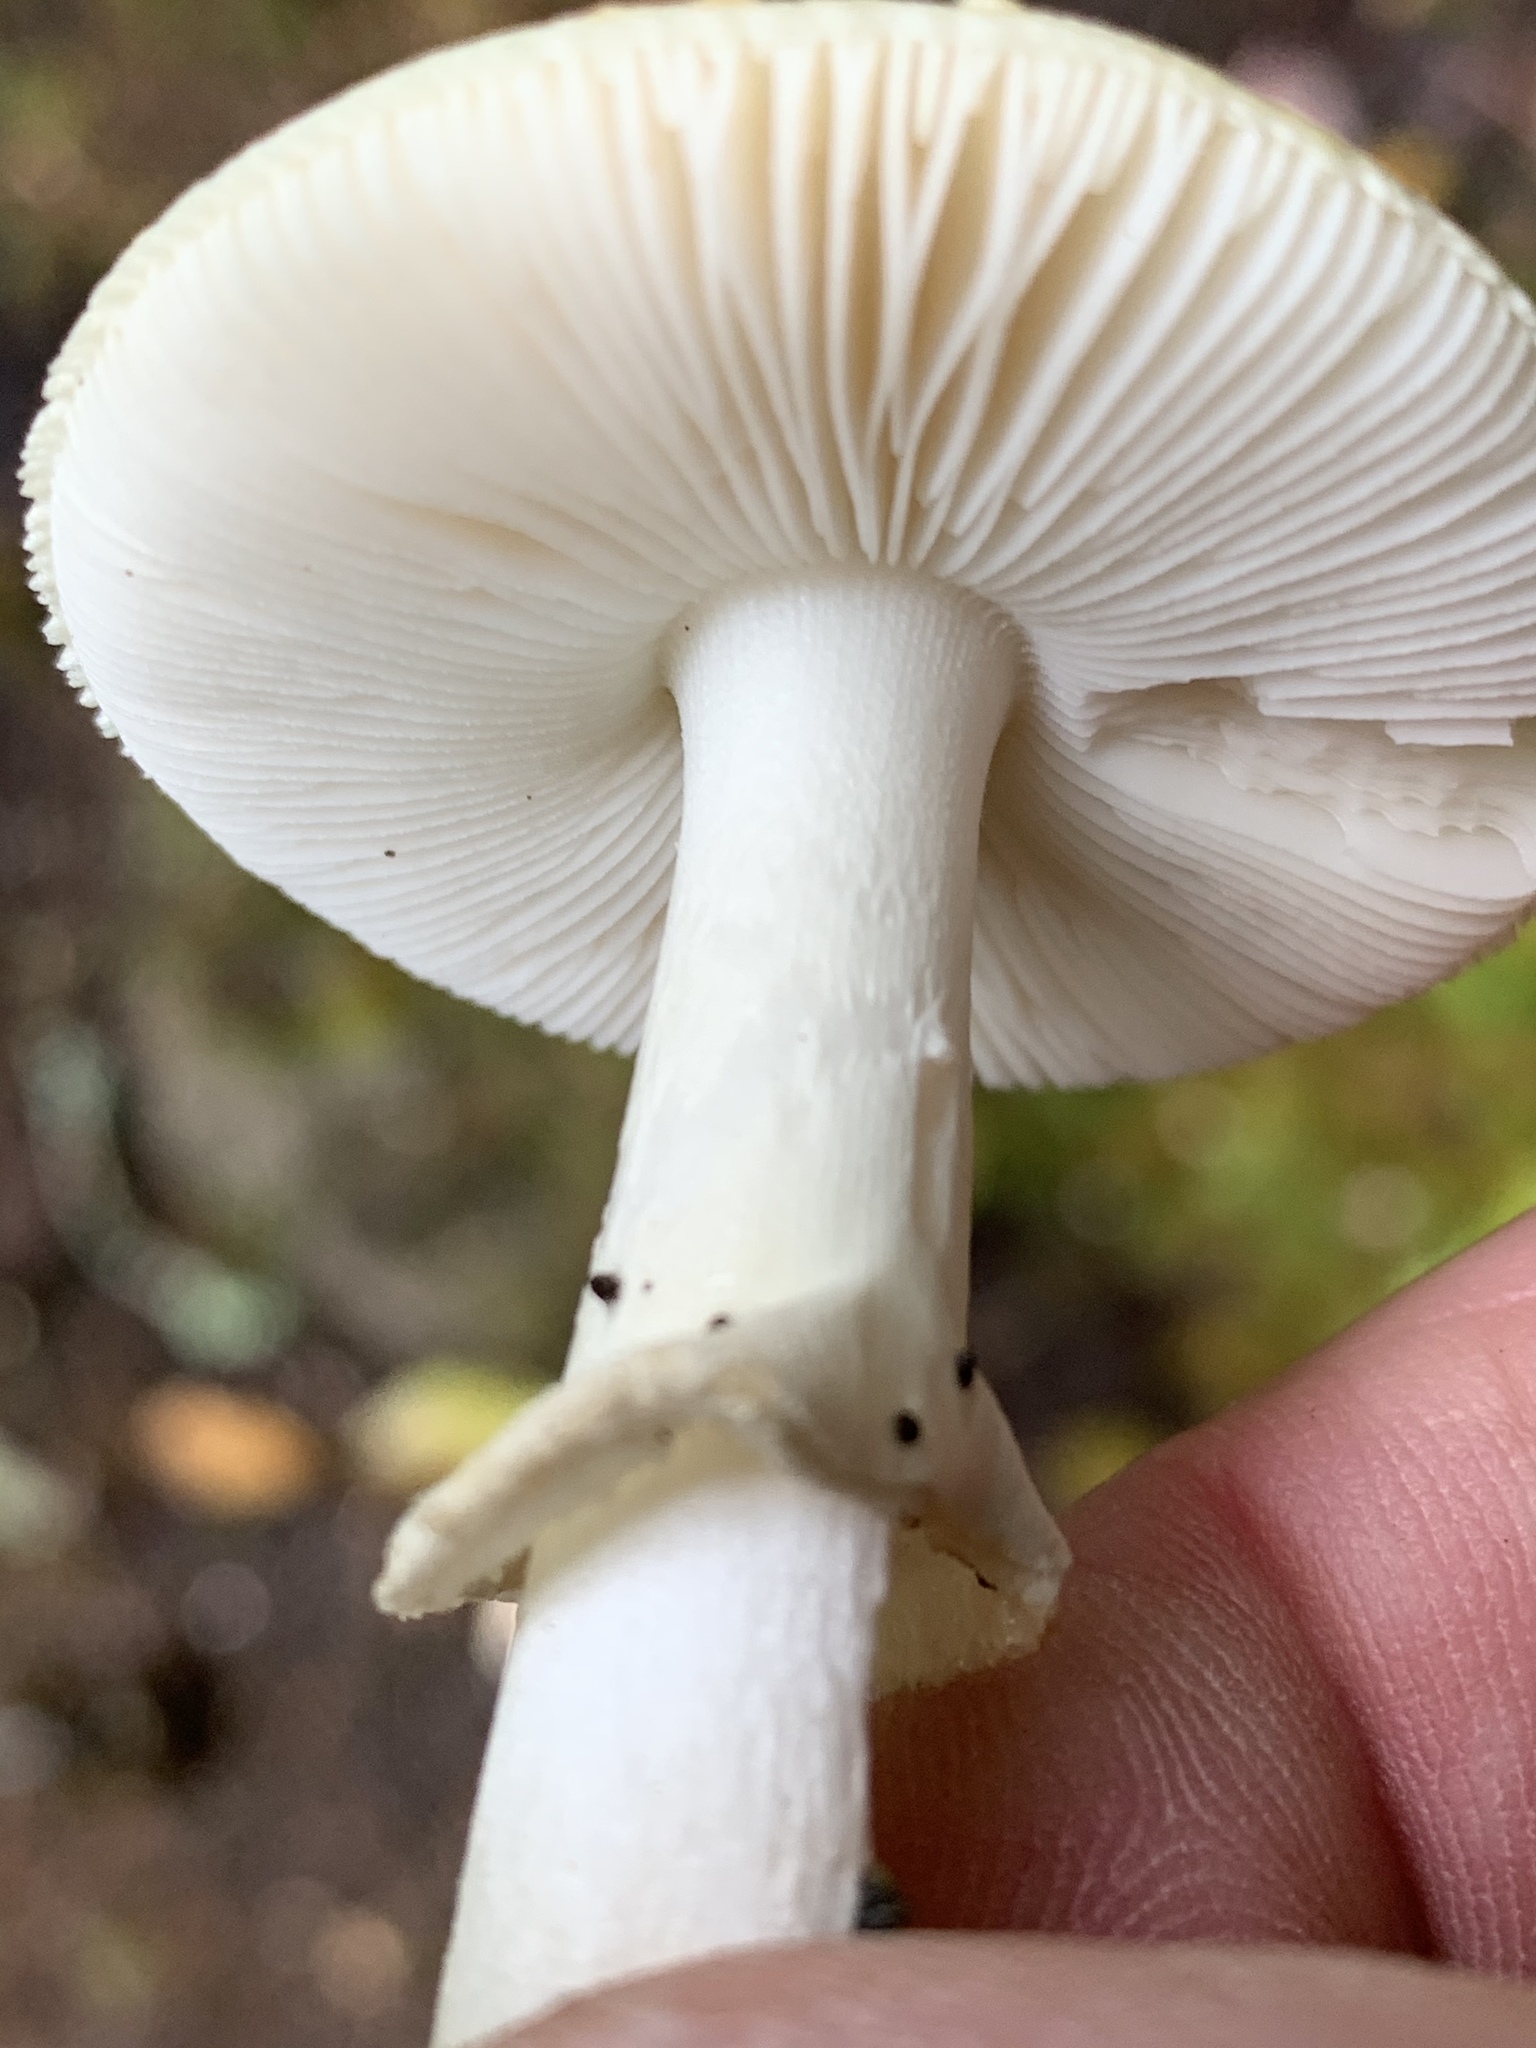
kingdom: Fungi
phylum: Basidiomycota
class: Agaricomycetes
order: Agaricales
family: Amanitaceae
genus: Amanita
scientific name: Amanita citrina
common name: False death-cap
